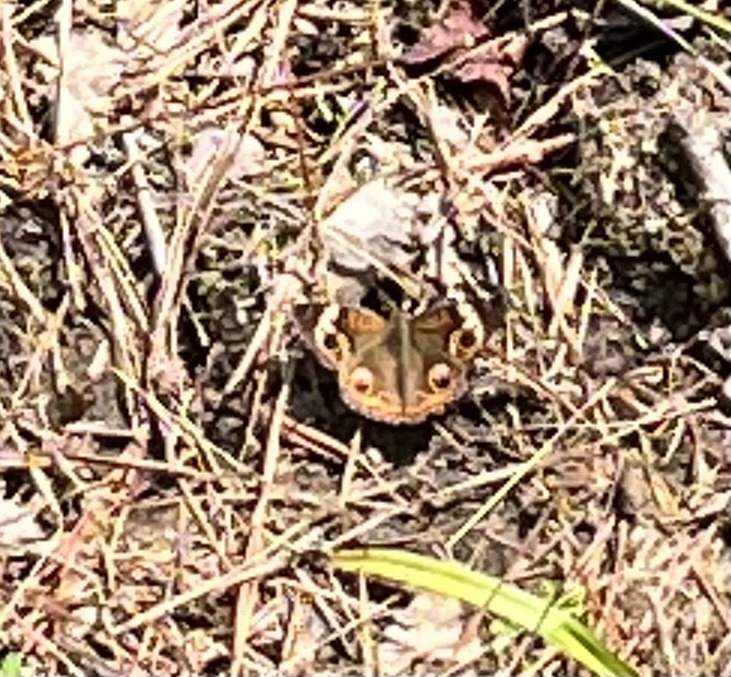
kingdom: Animalia
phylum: Arthropoda
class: Insecta
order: Lepidoptera
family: Nymphalidae
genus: Junonia
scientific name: Junonia coenia
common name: Common buckeye
